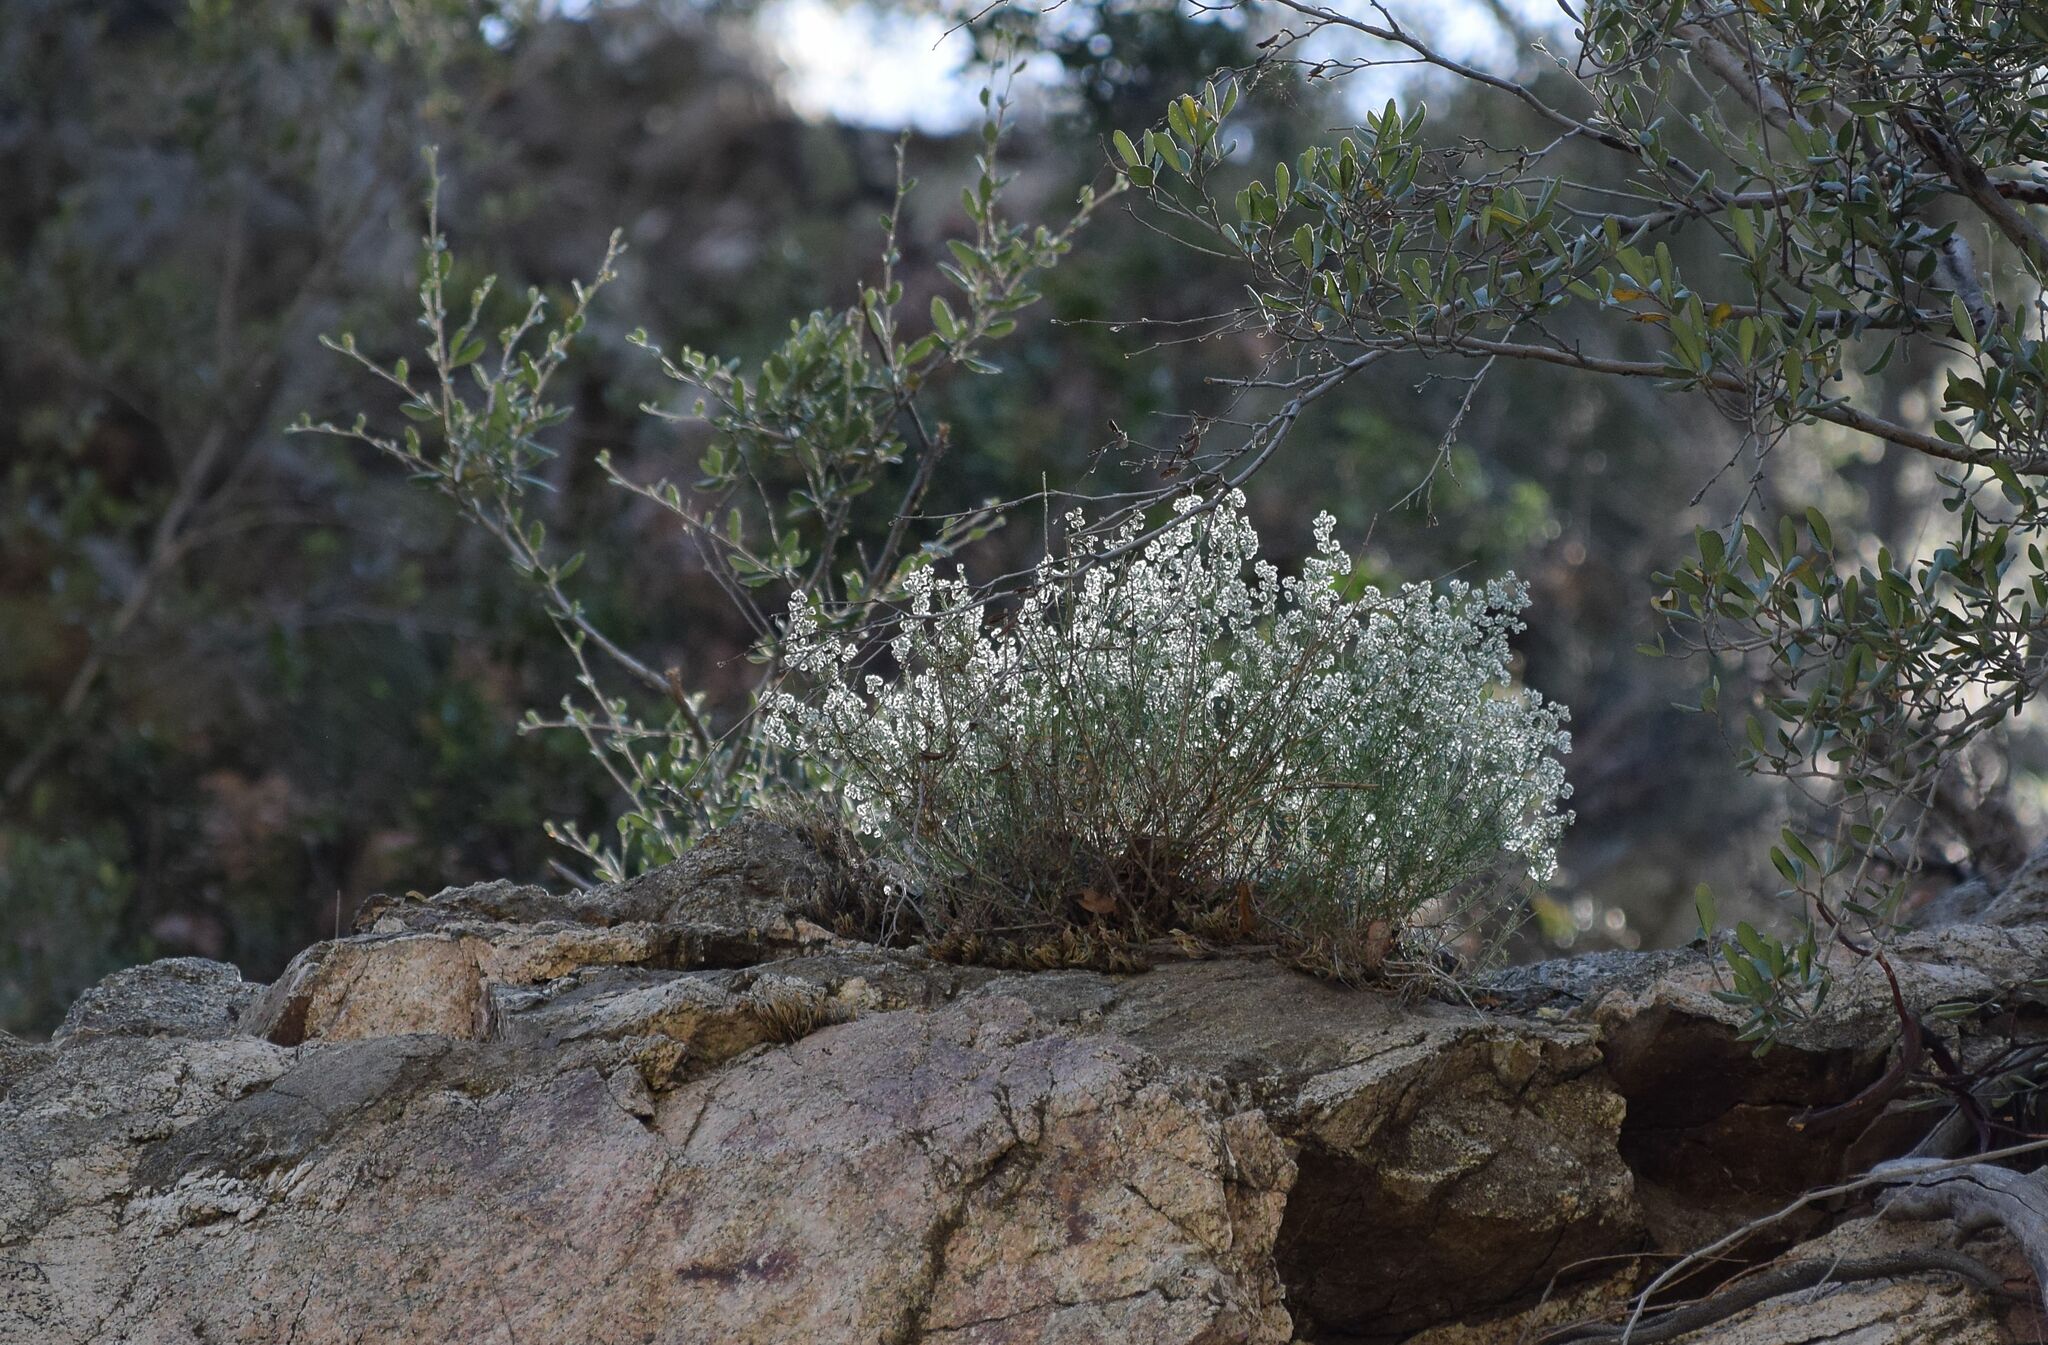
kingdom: Plantae
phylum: Tracheophyta
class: Magnoliopsida
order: Gentianales
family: Rubiaceae
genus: Galium
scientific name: Galium angustifolium
